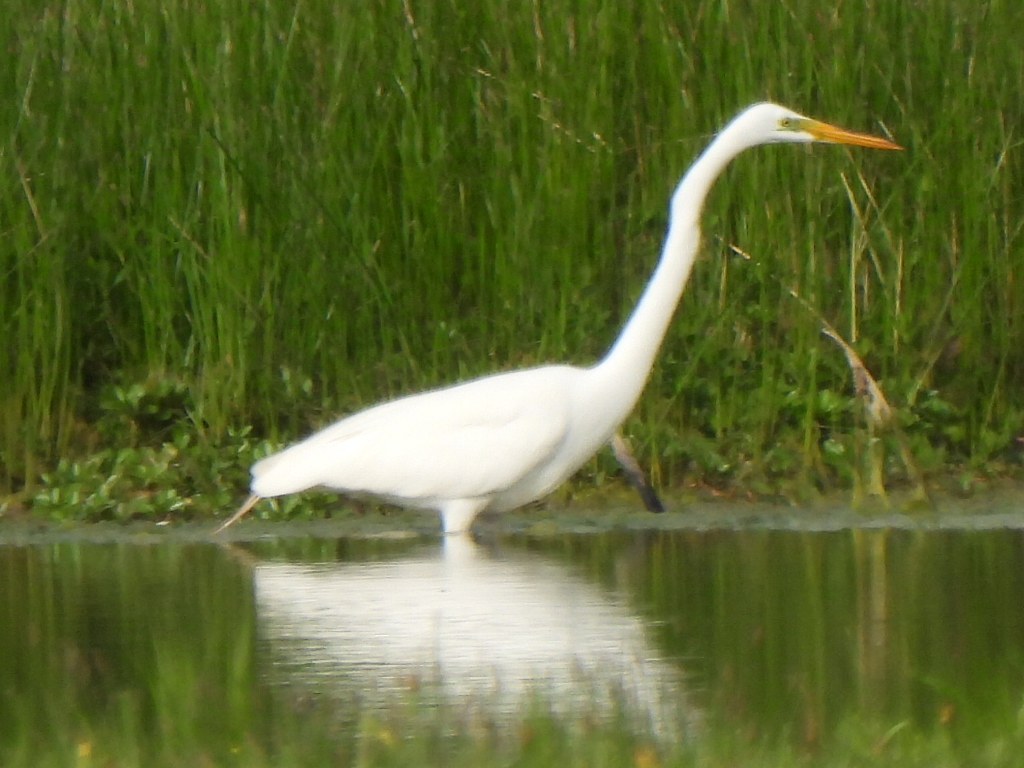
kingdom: Animalia
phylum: Chordata
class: Aves
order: Pelecaniformes
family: Ardeidae
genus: Ardea
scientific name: Ardea alba
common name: Great egret
